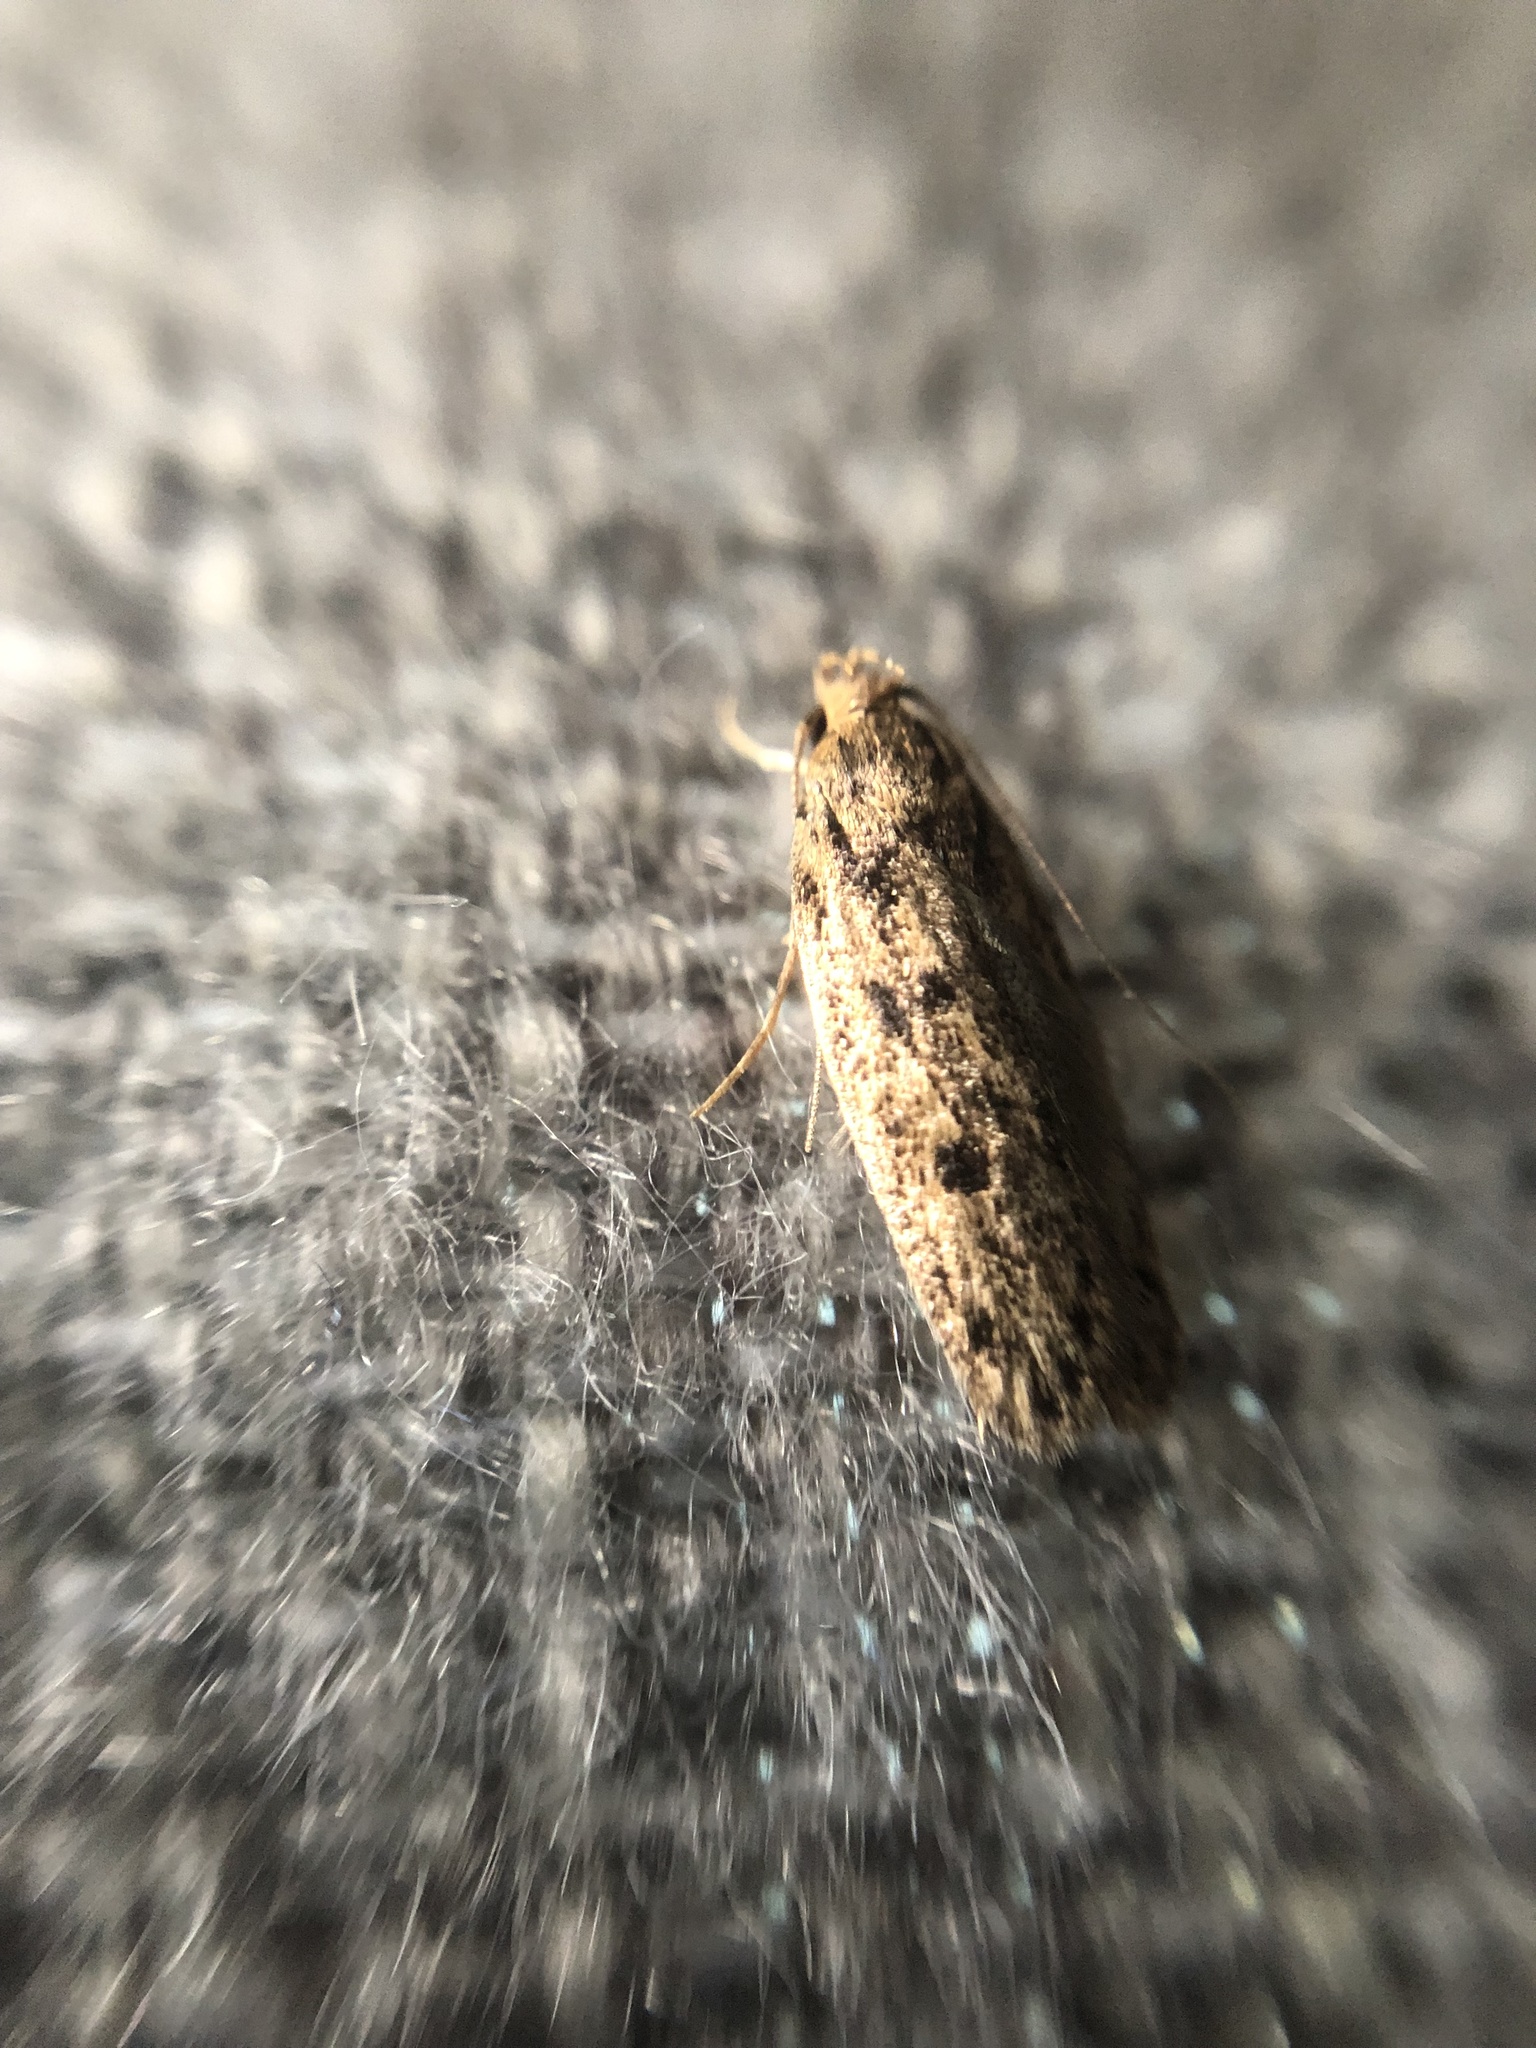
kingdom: Animalia
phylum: Arthropoda
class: Insecta
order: Lepidoptera
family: Oecophoridae
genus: Hofmannophila
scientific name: Hofmannophila pseudospretella
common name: Brown house moth
